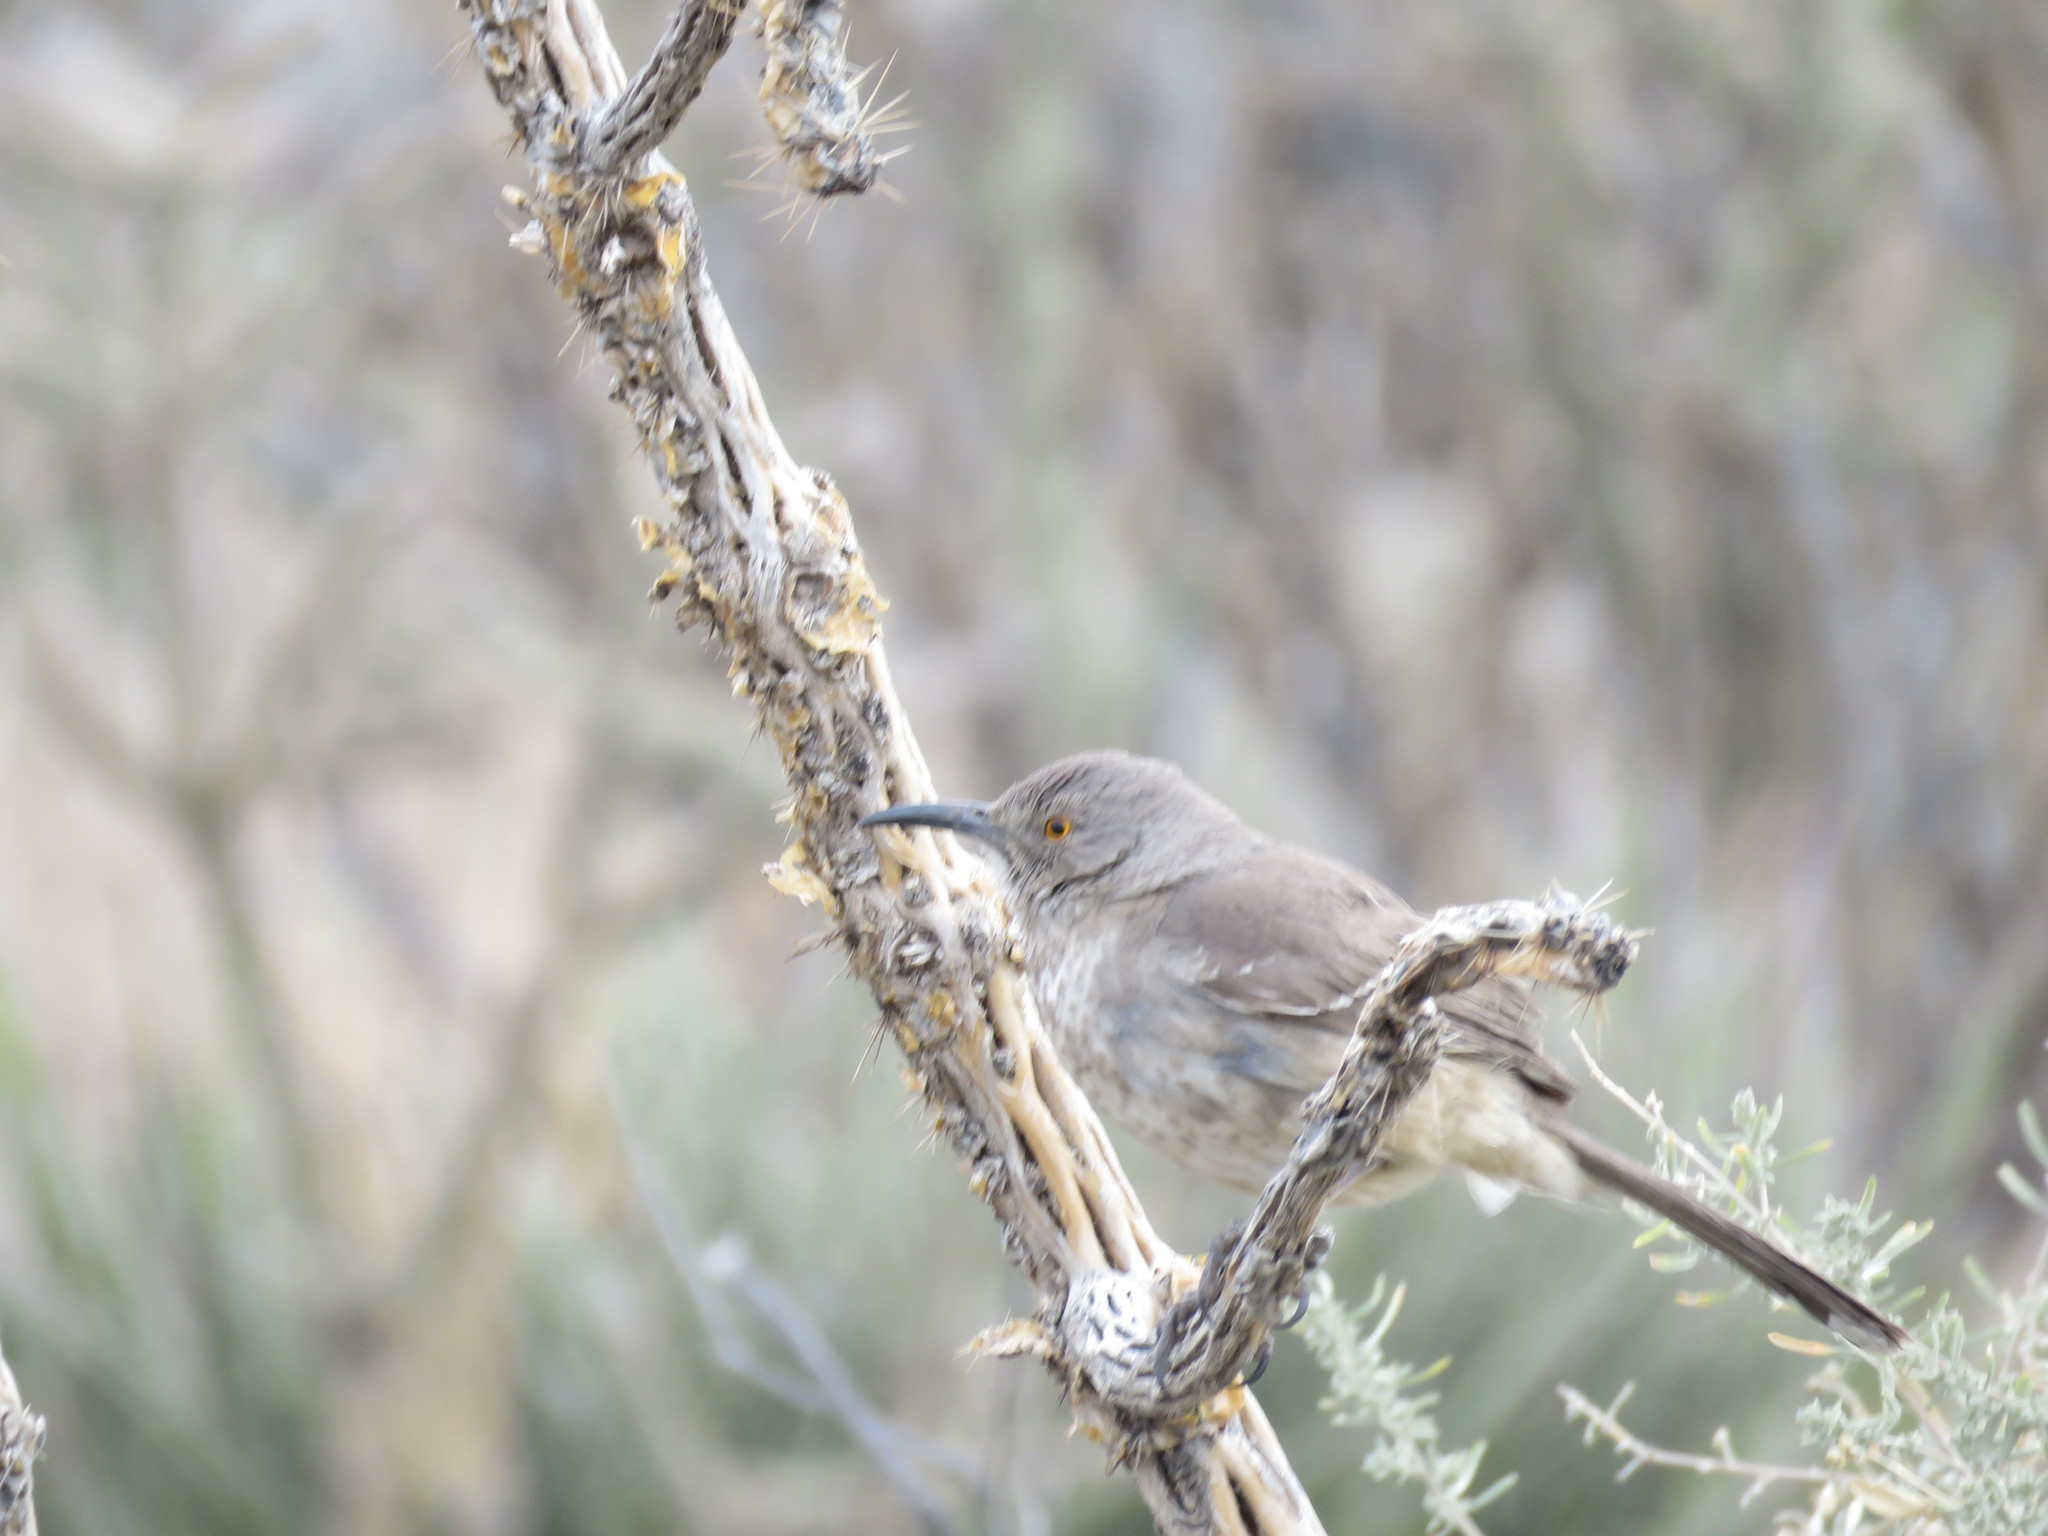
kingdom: Animalia
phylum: Chordata
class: Aves
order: Passeriformes
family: Mimidae
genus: Toxostoma
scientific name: Toxostoma curvirostre
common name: Curve-billed thrasher
